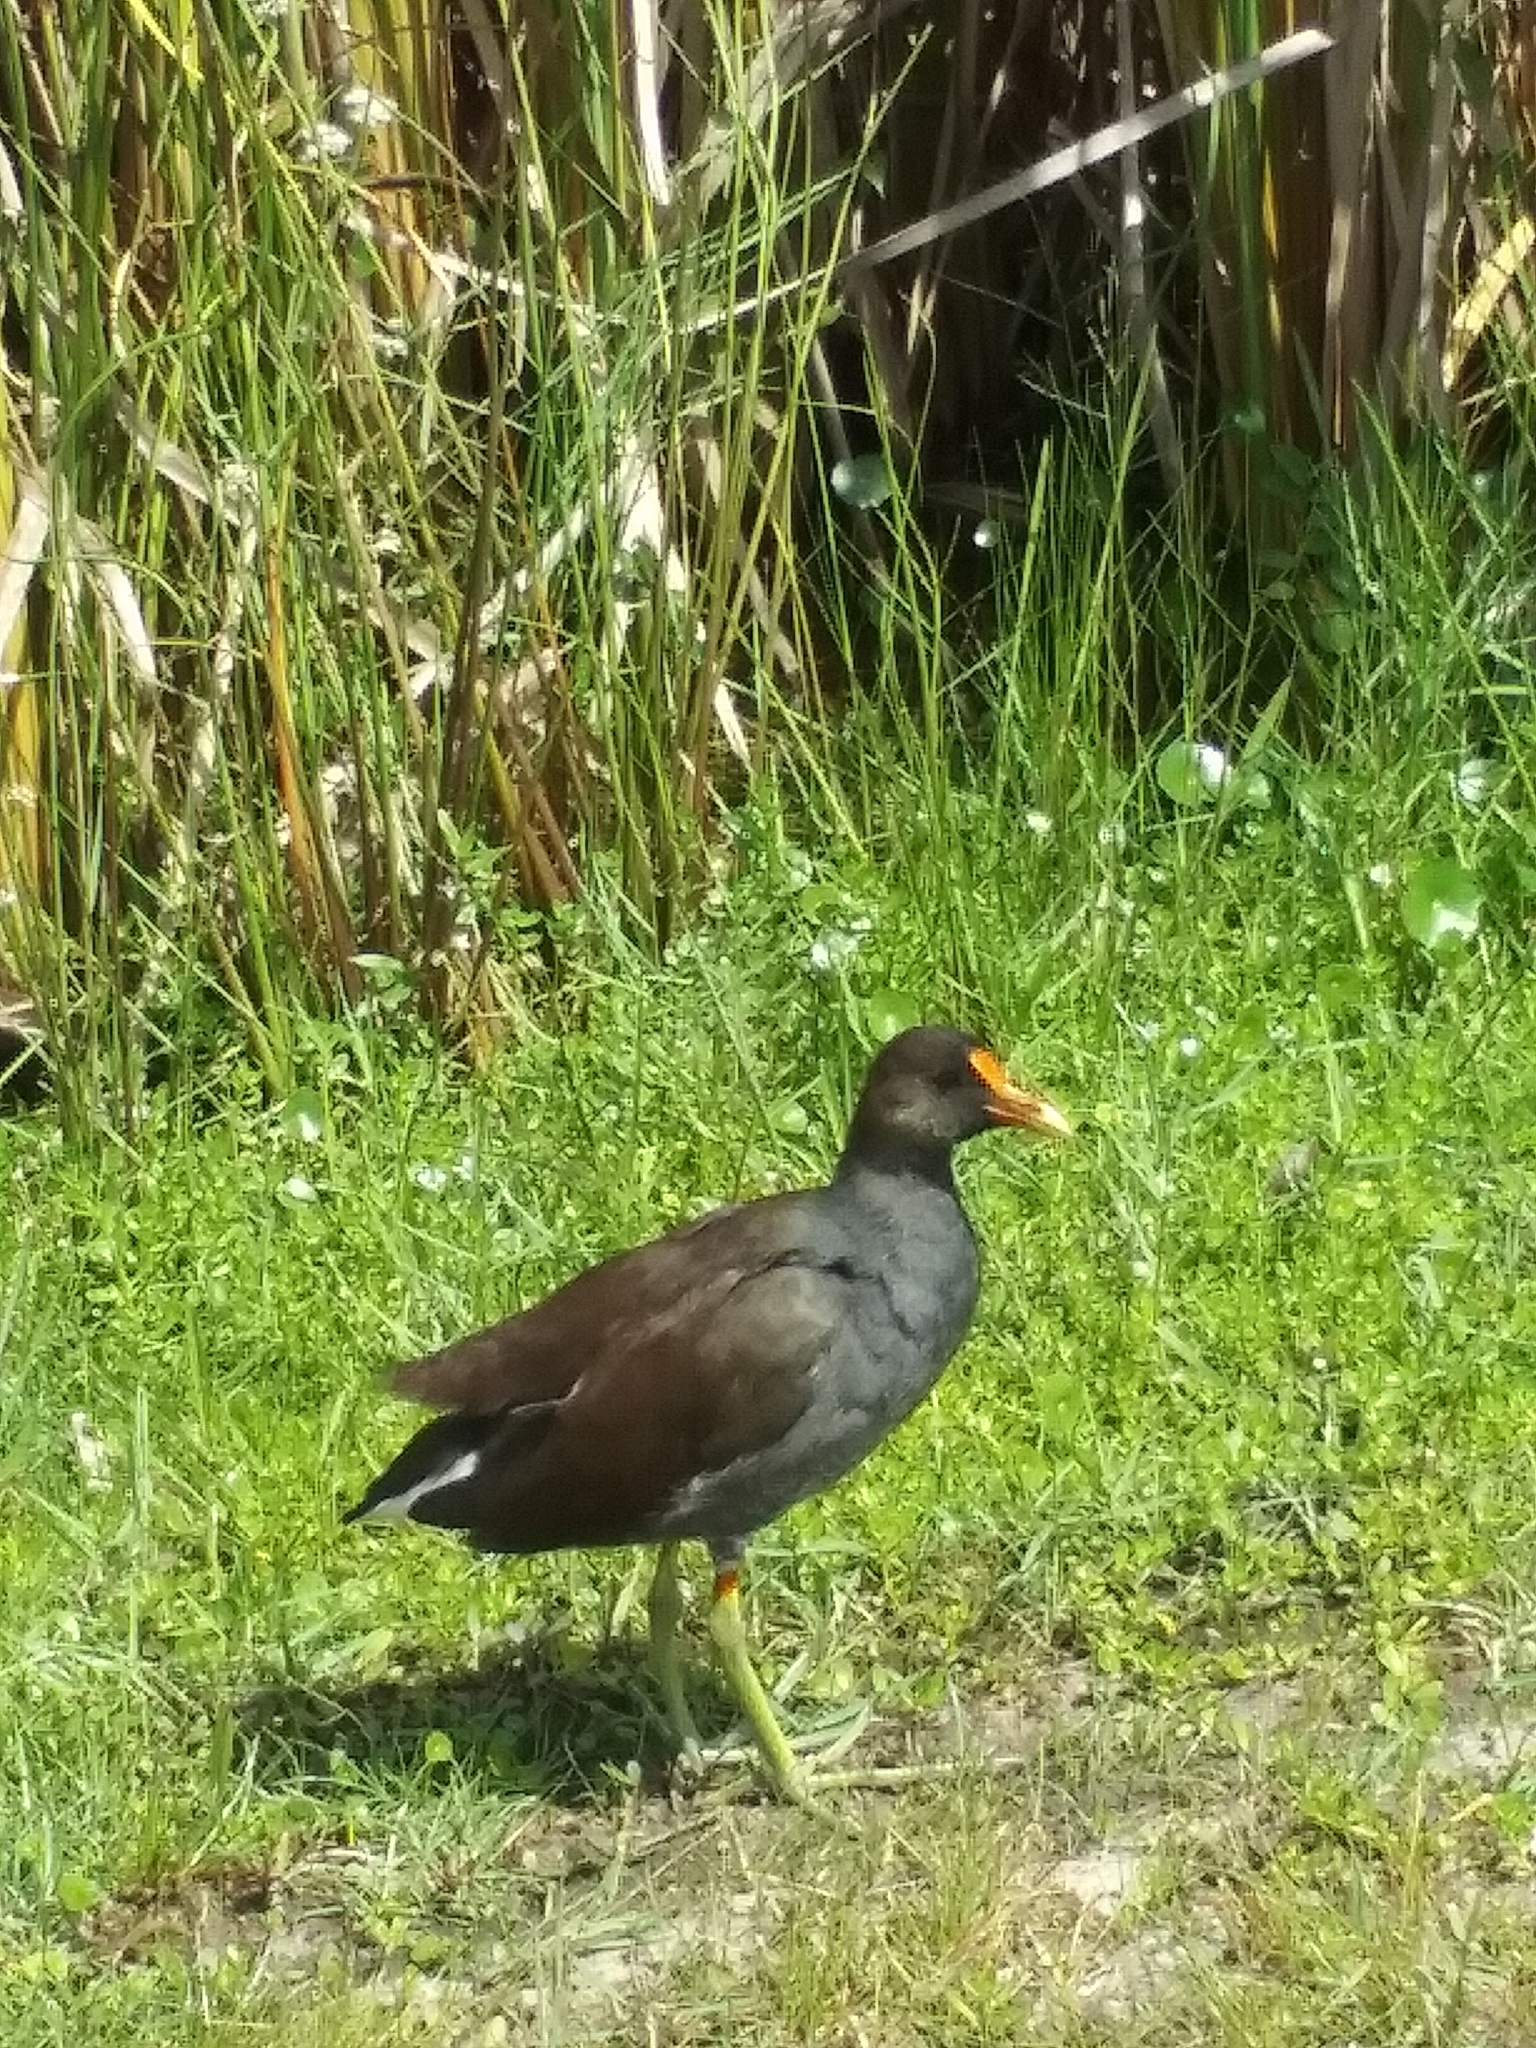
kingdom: Animalia
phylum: Chordata
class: Aves
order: Gruiformes
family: Rallidae
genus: Gallinula
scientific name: Gallinula chloropus
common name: Common moorhen
